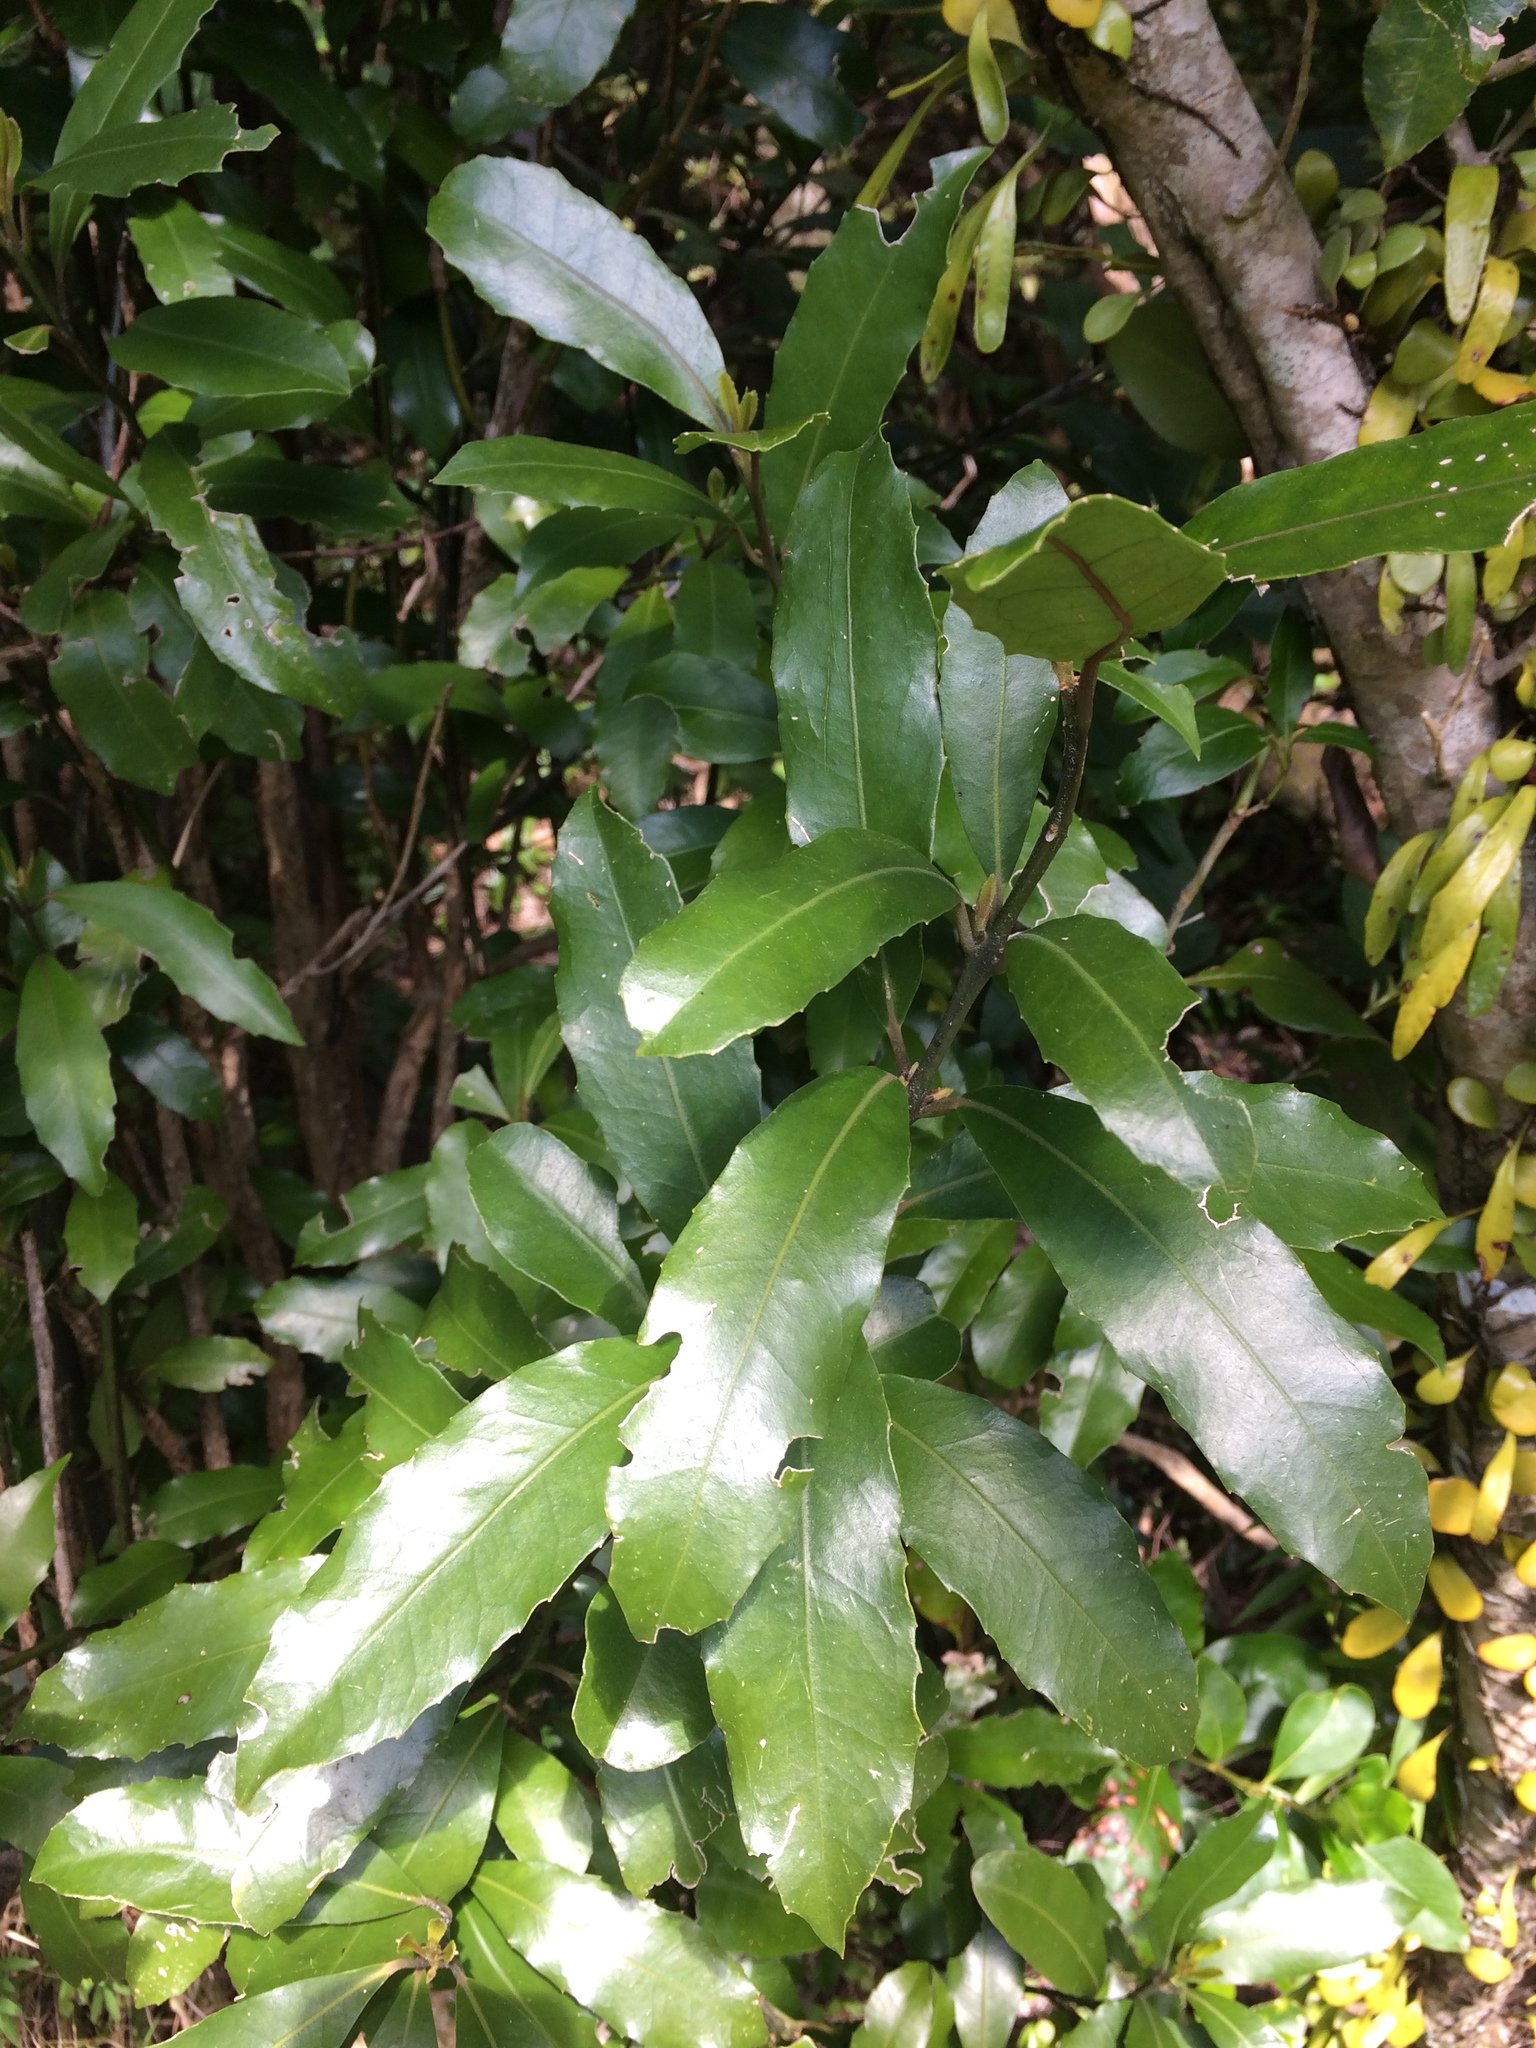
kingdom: Plantae
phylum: Tracheophyta
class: Magnoliopsida
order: Laurales
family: Monimiaceae
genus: Hedycarya
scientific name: Hedycarya arborea
